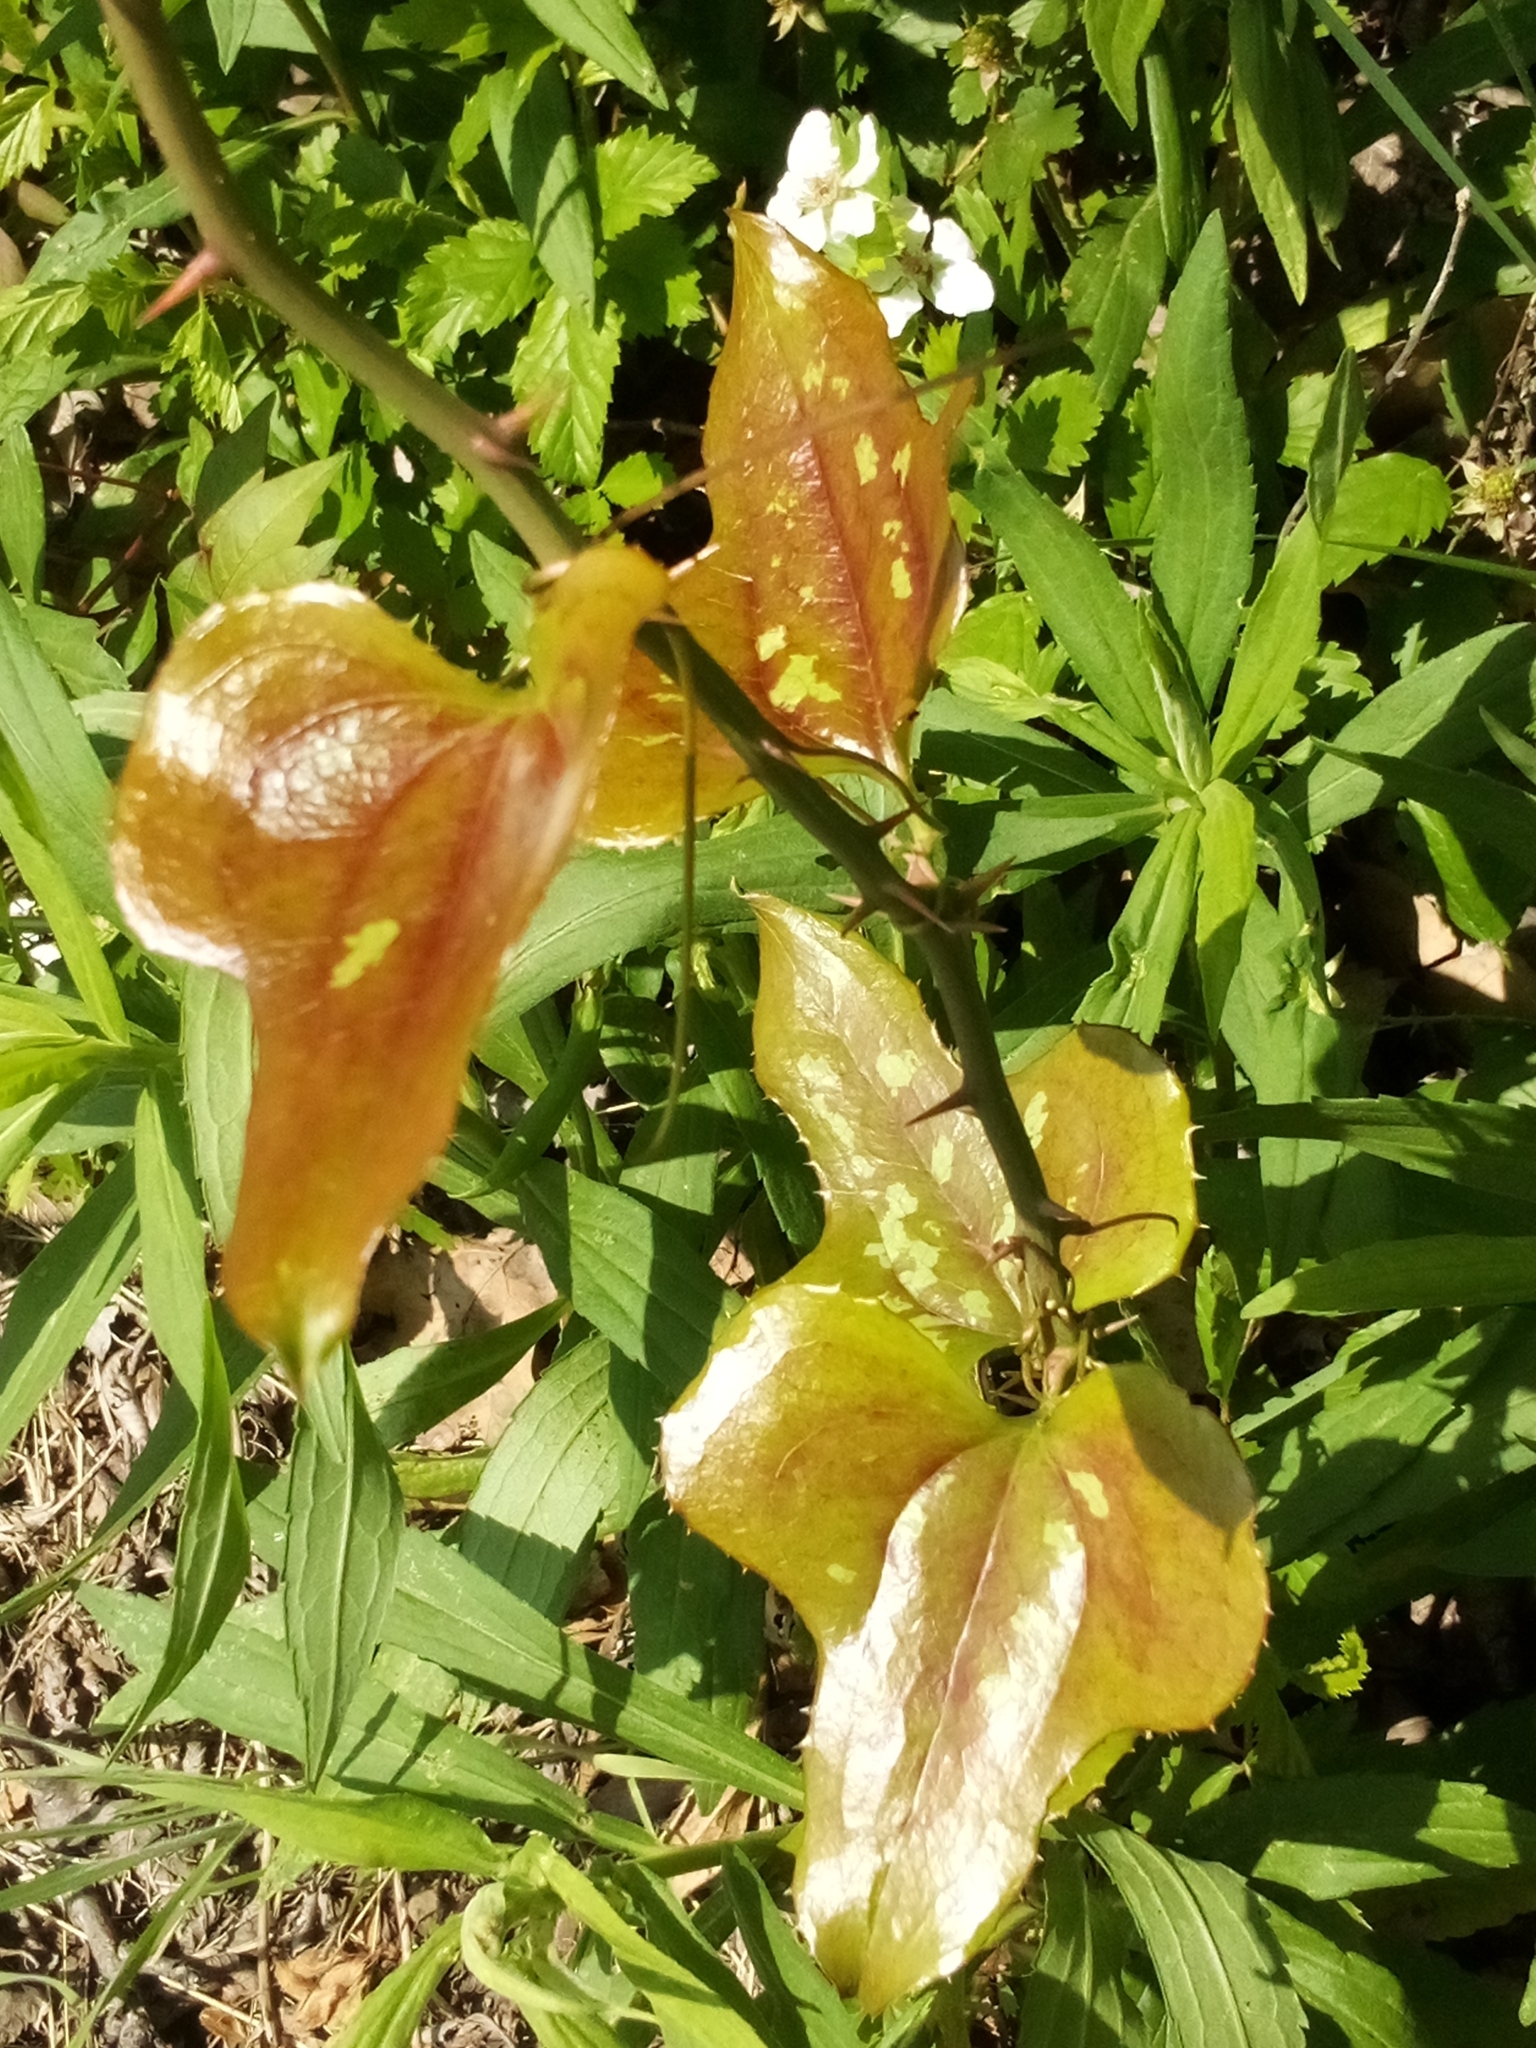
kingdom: Plantae
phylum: Tracheophyta
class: Liliopsida
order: Liliales
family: Smilacaceae
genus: Smilax
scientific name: Smilax bona-nox
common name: Catbrier
